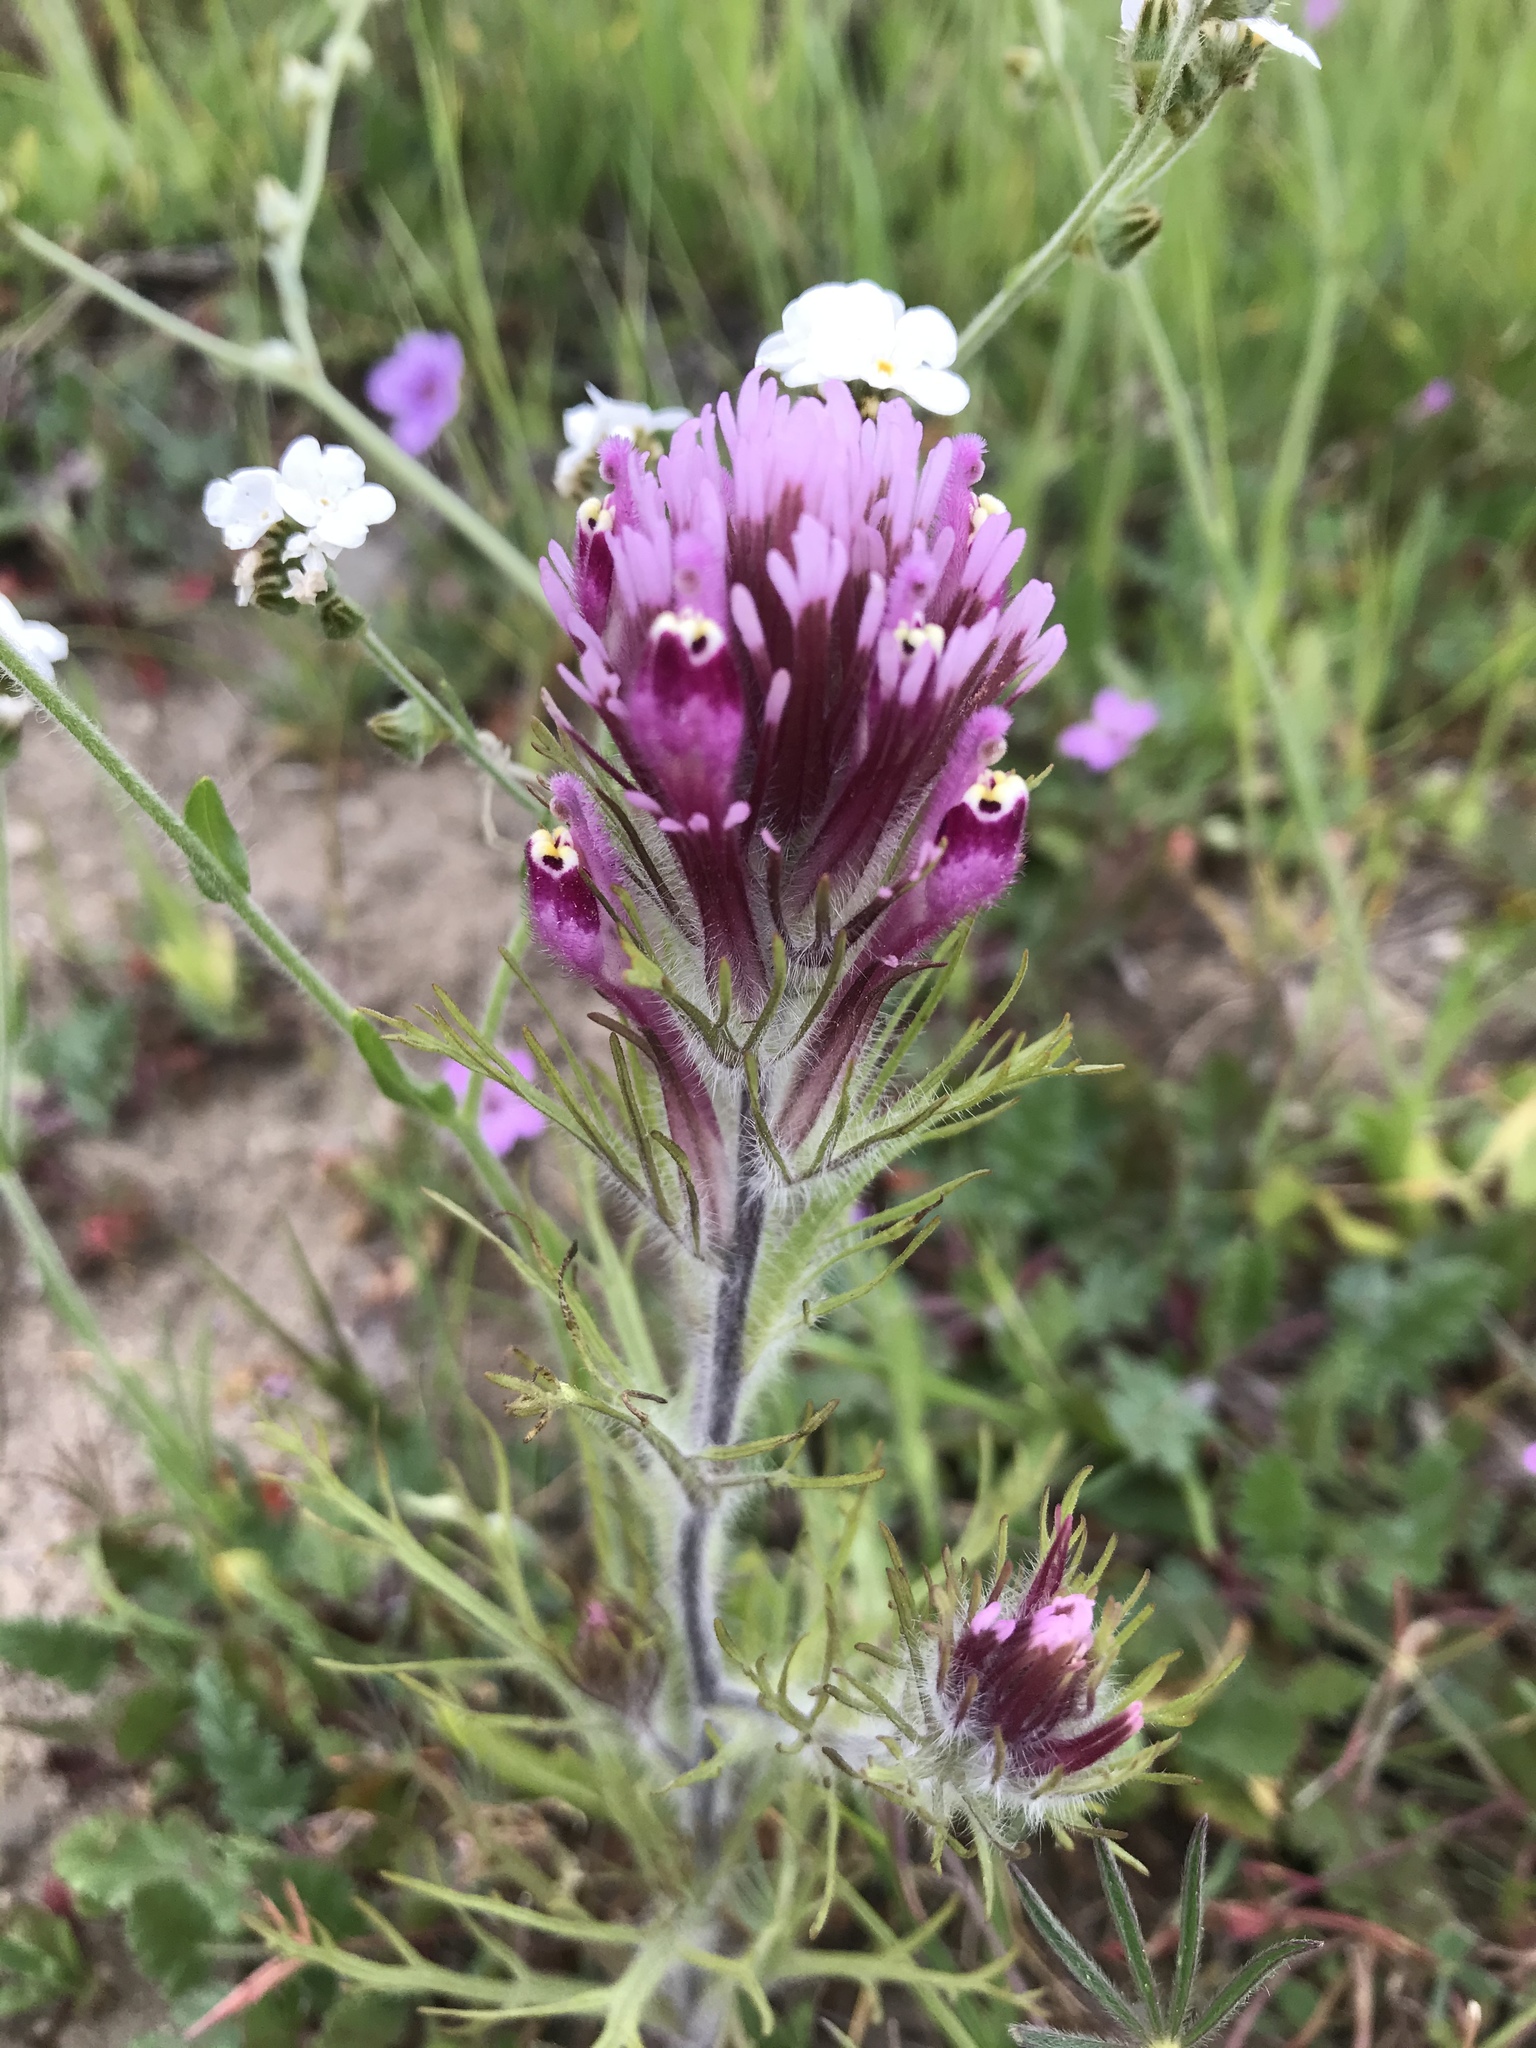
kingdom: Plantae
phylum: Tracheophyta
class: Magnoliopsida
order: Lamiales
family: Orobanchaceae
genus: Castilleja
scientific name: Castilleja exserta
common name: Purple owl-clover
